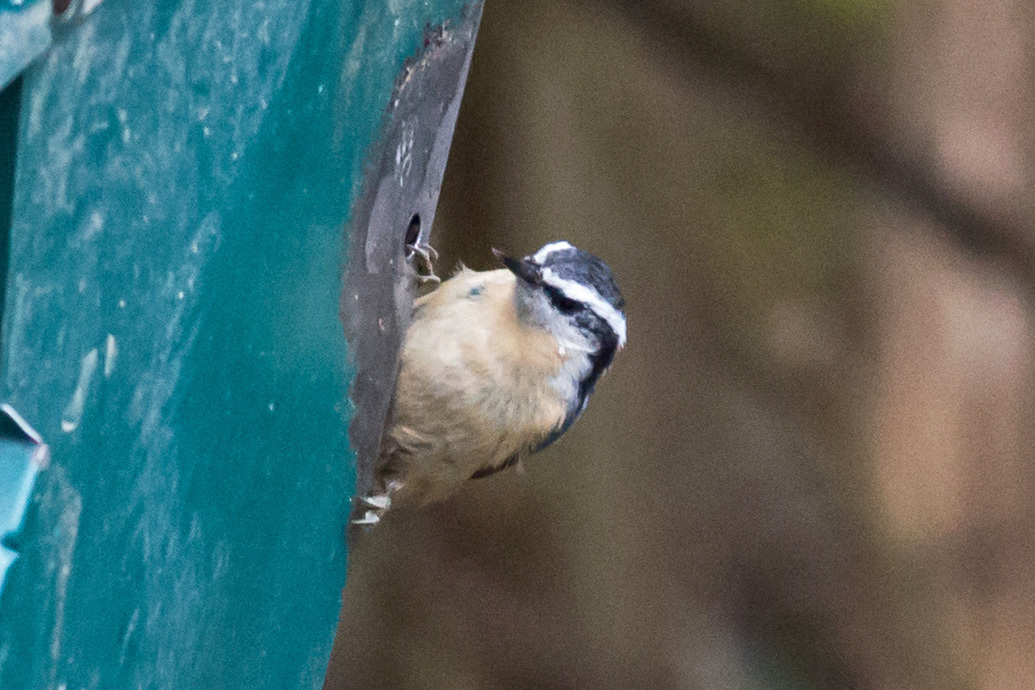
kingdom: Animalia
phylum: Chordata
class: Aves
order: Passeriformes
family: Sittidae
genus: Sitta
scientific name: Sitta canadensis
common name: Red-breasted nuthatch
